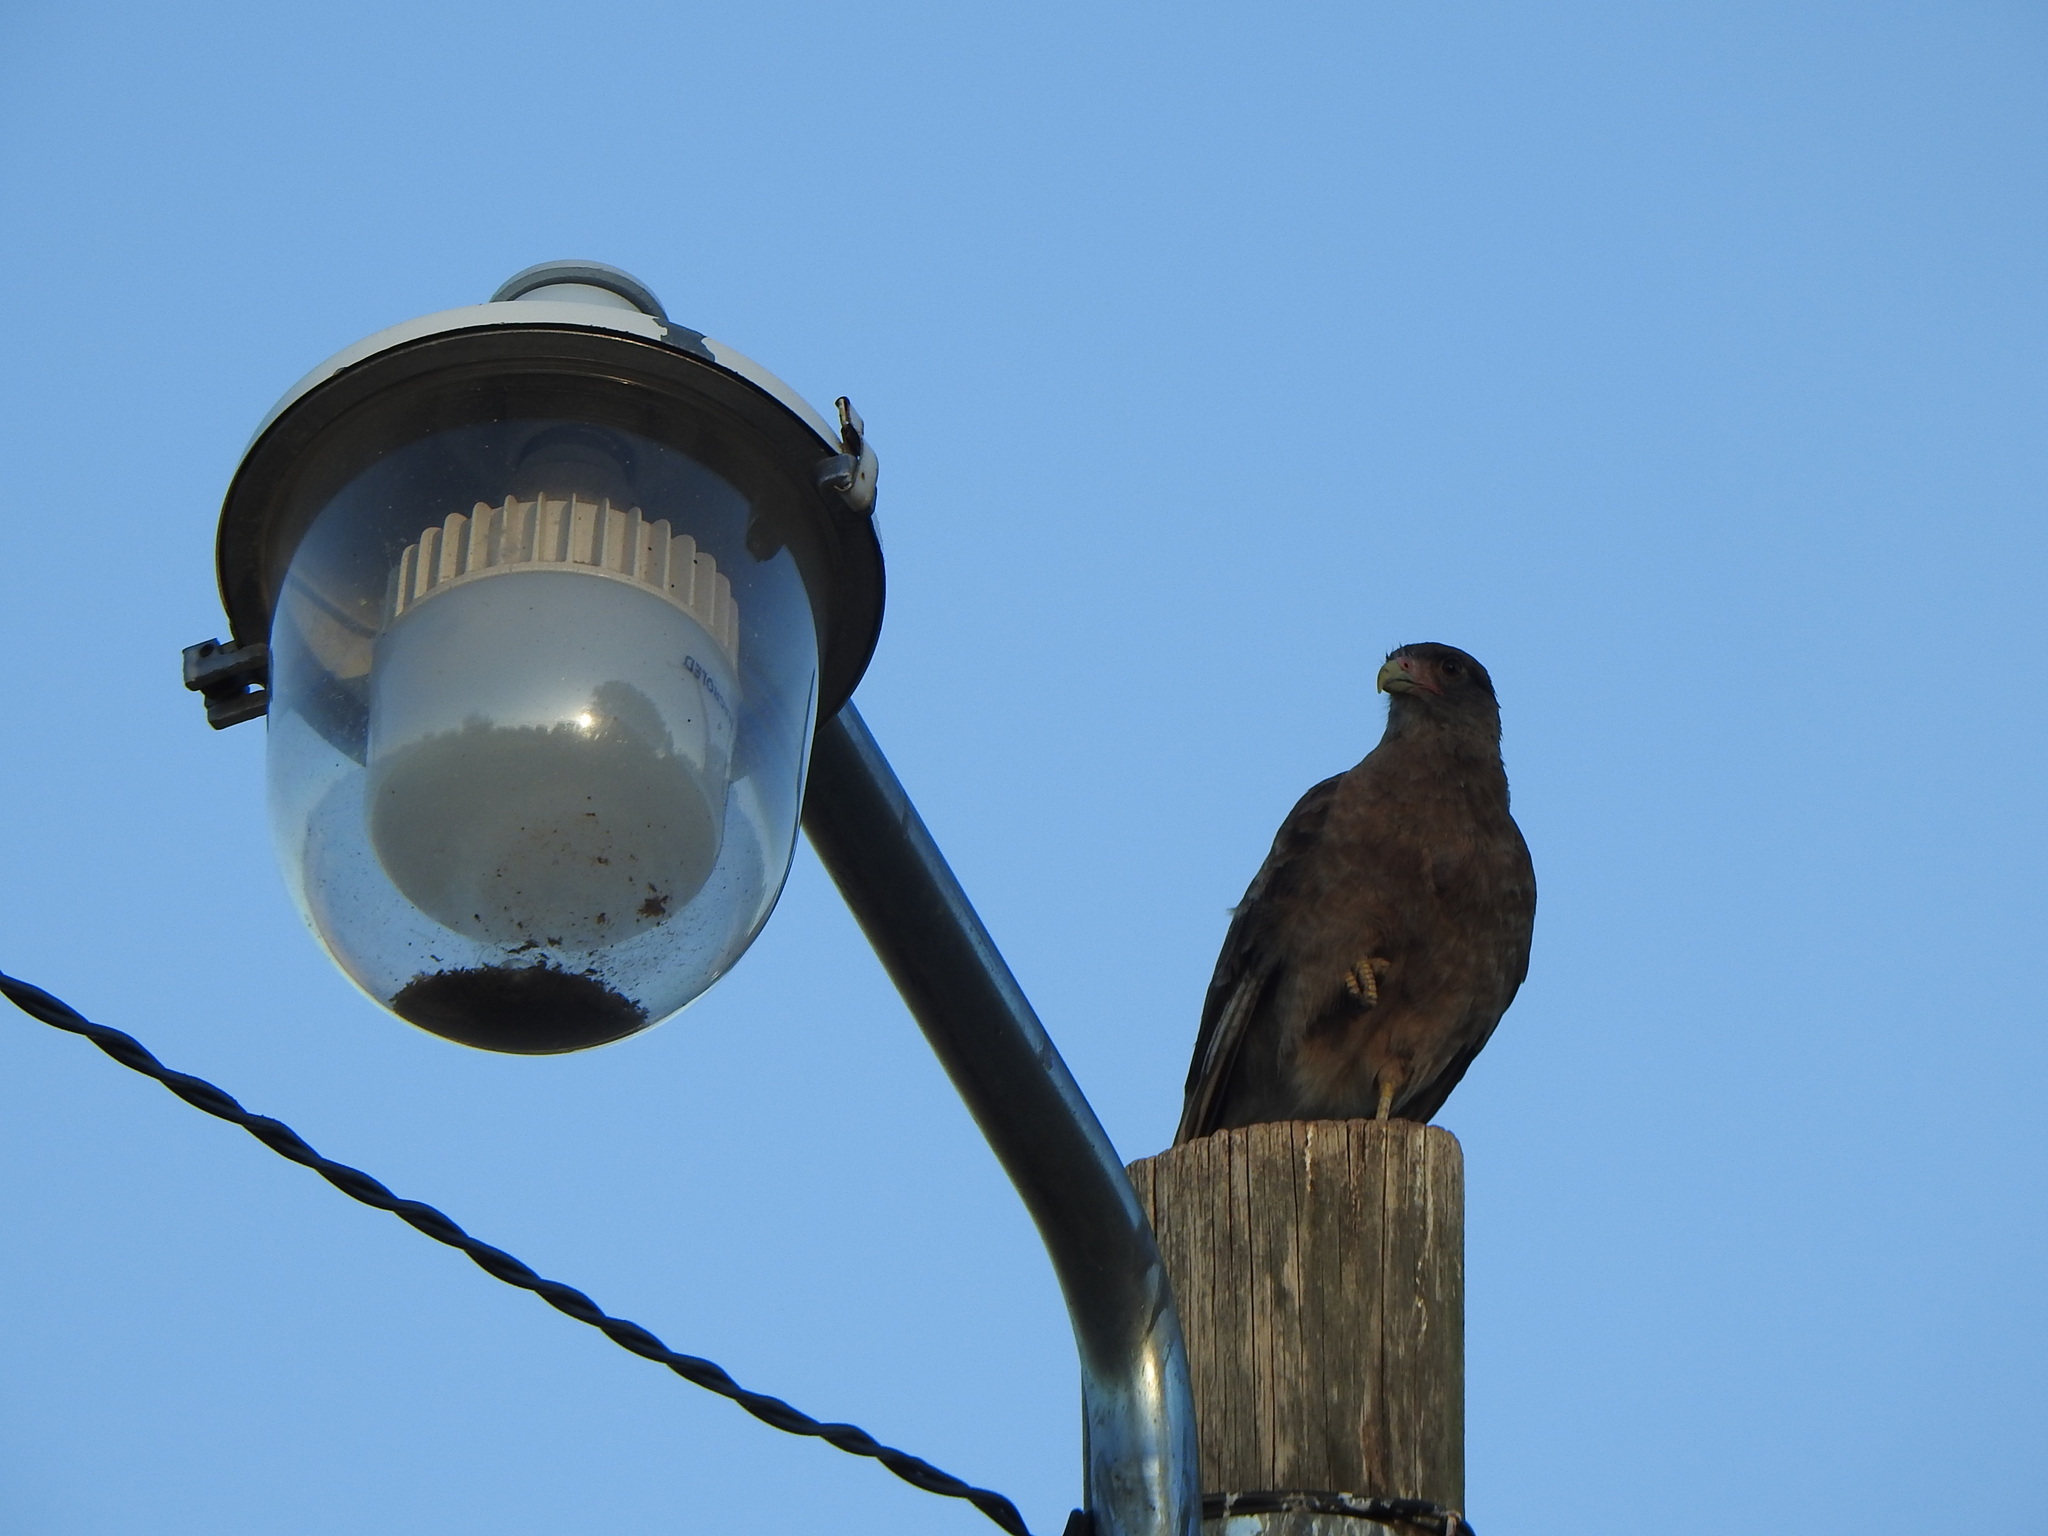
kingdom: Animalia
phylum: Chordata
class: Aves
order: Falconiformes
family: Falconidae
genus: Daptrius
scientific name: Daptrius
